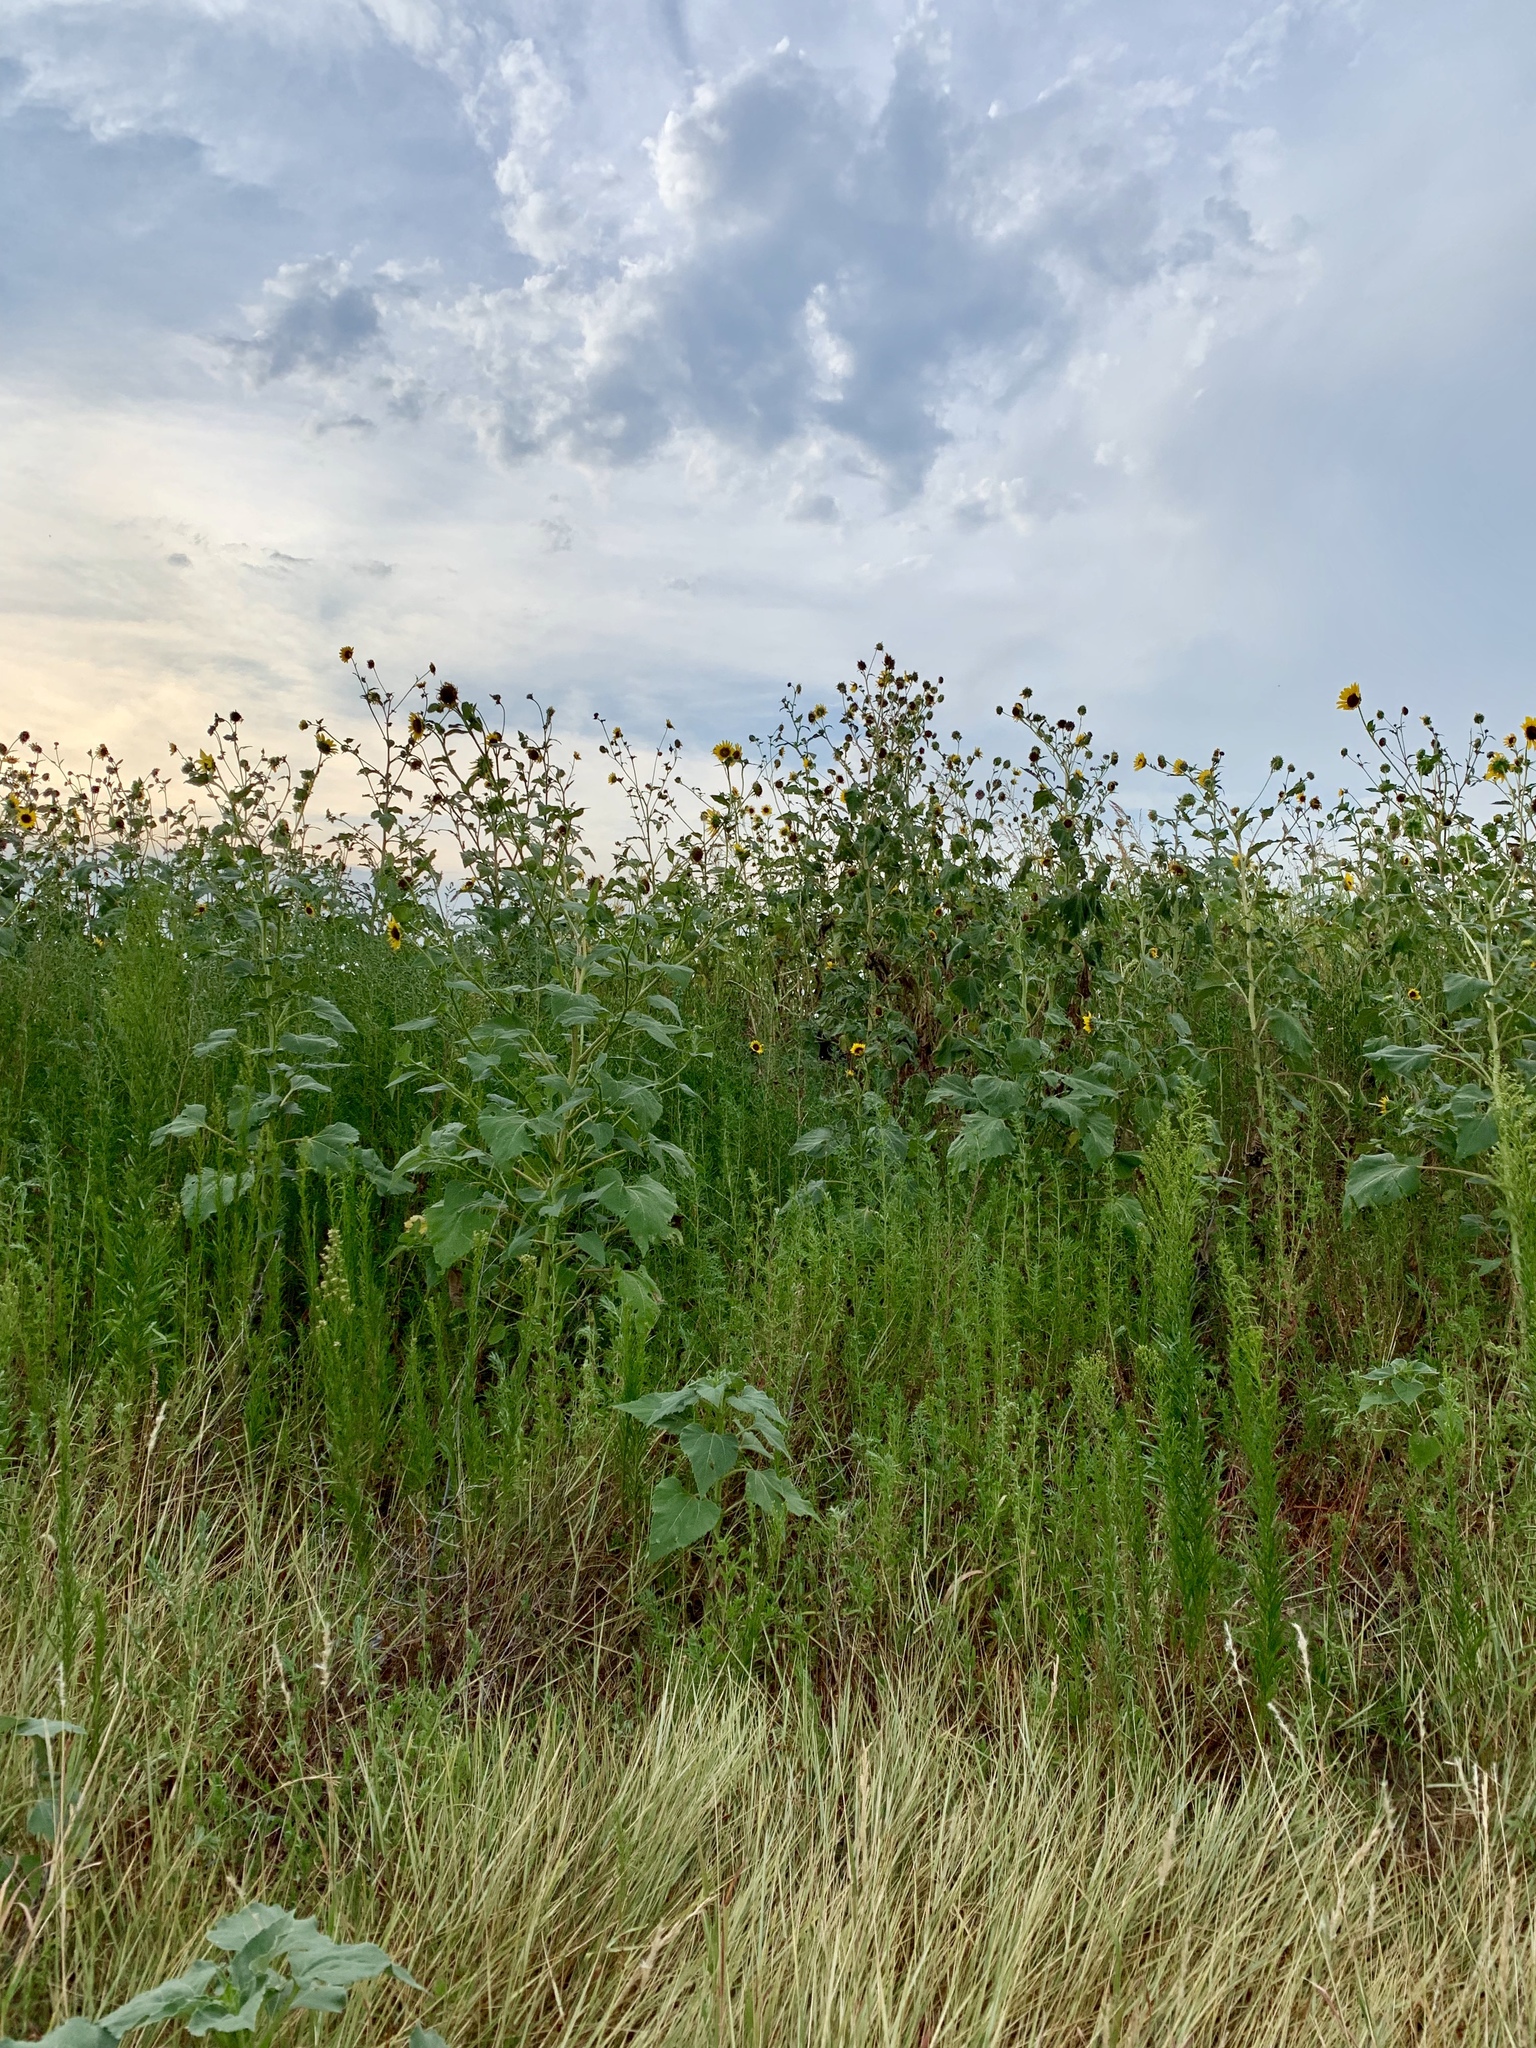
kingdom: Plantae
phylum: Tracheophyta
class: Magnoliopsida
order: Asterales
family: Asteraceae
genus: Helianthus
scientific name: Helianthus annuus
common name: Sunflower
